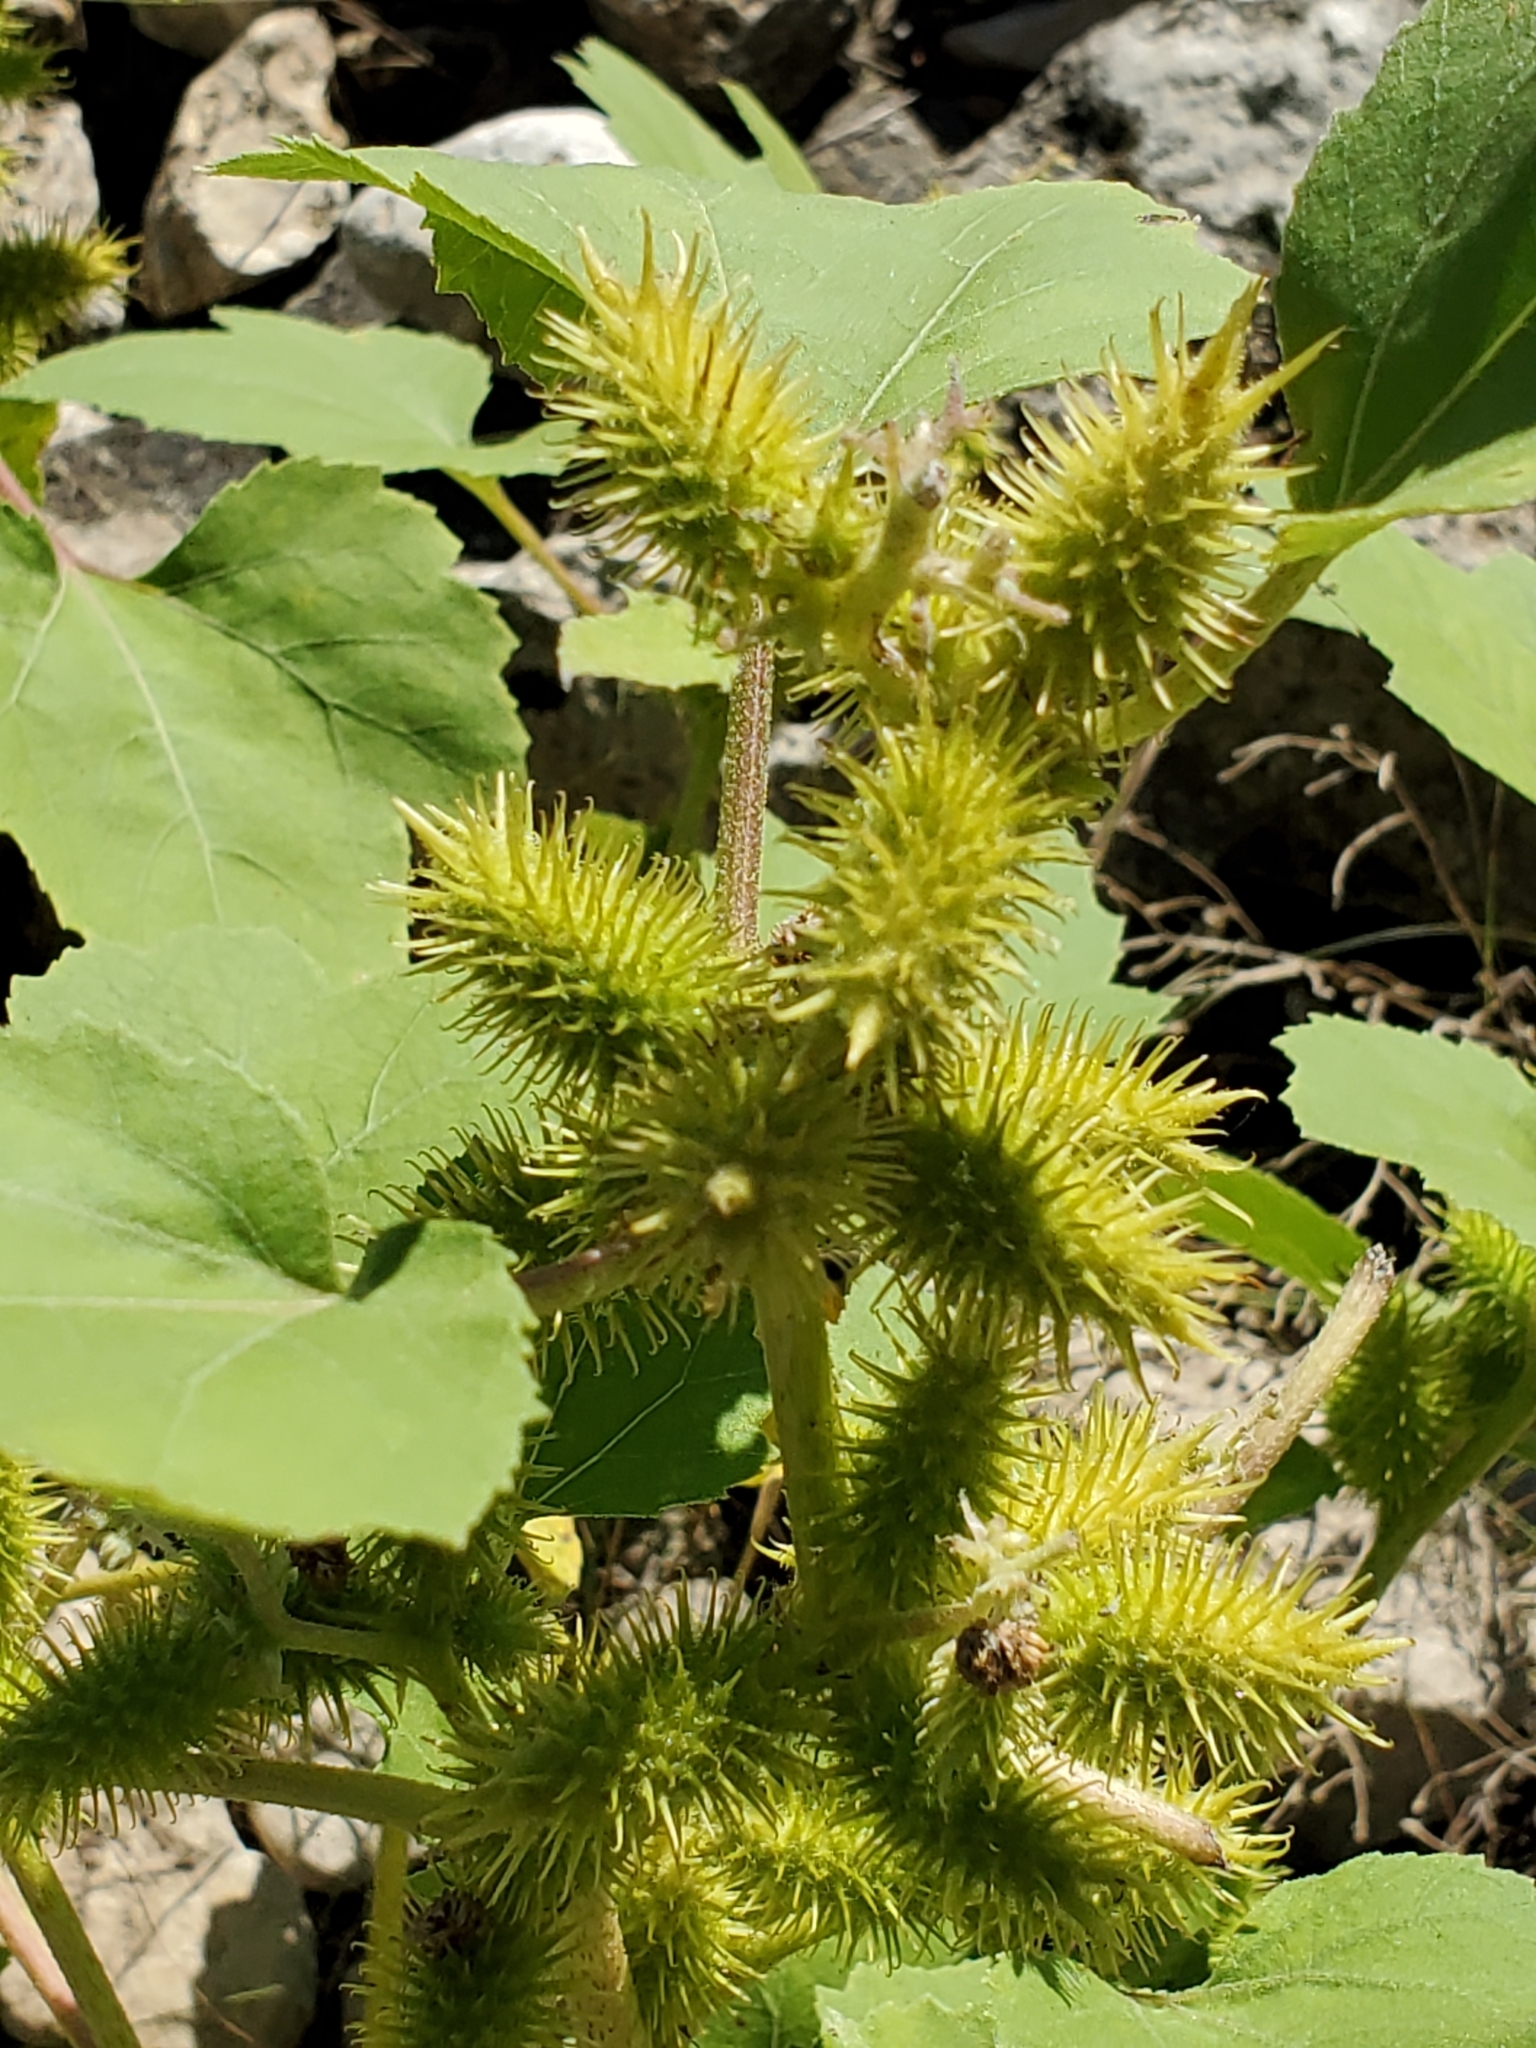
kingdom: Plantae
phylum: Tracheophyta
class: Magnoliopsida
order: Asterales
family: Asteraceae
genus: Xanthium
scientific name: Xanthium strumarium
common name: Rough cocklebur
